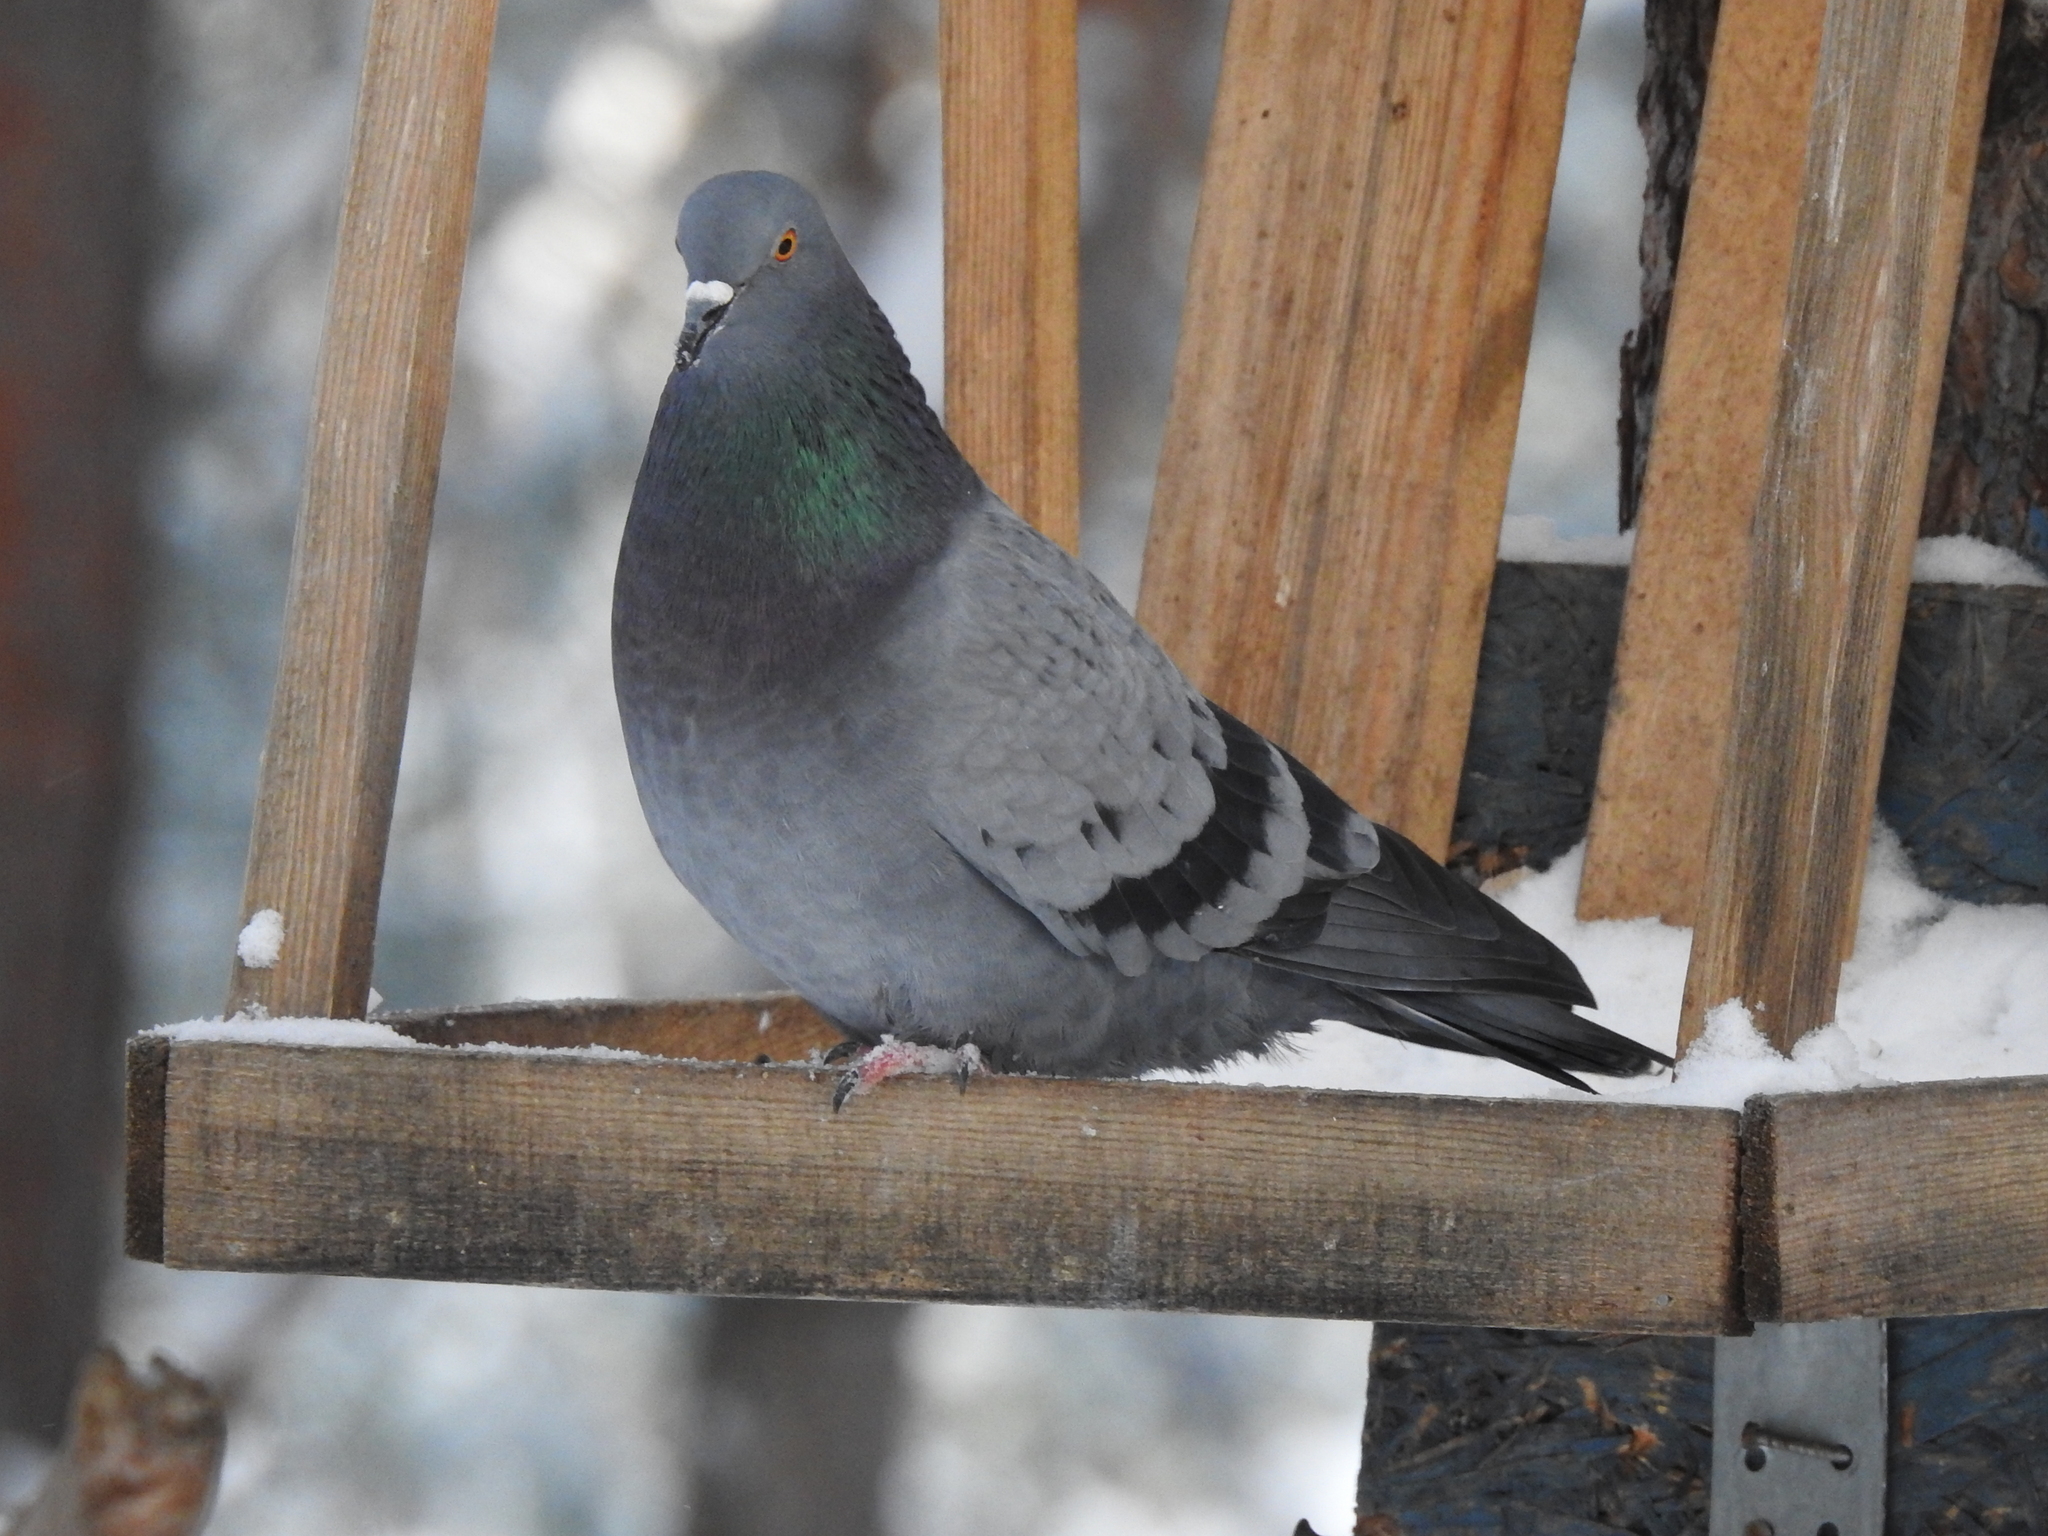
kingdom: Animalia
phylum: Chordata
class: Aves
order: Columbiformes
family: Columbidae
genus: Columba
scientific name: Columba livia
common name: Rock pigeon
